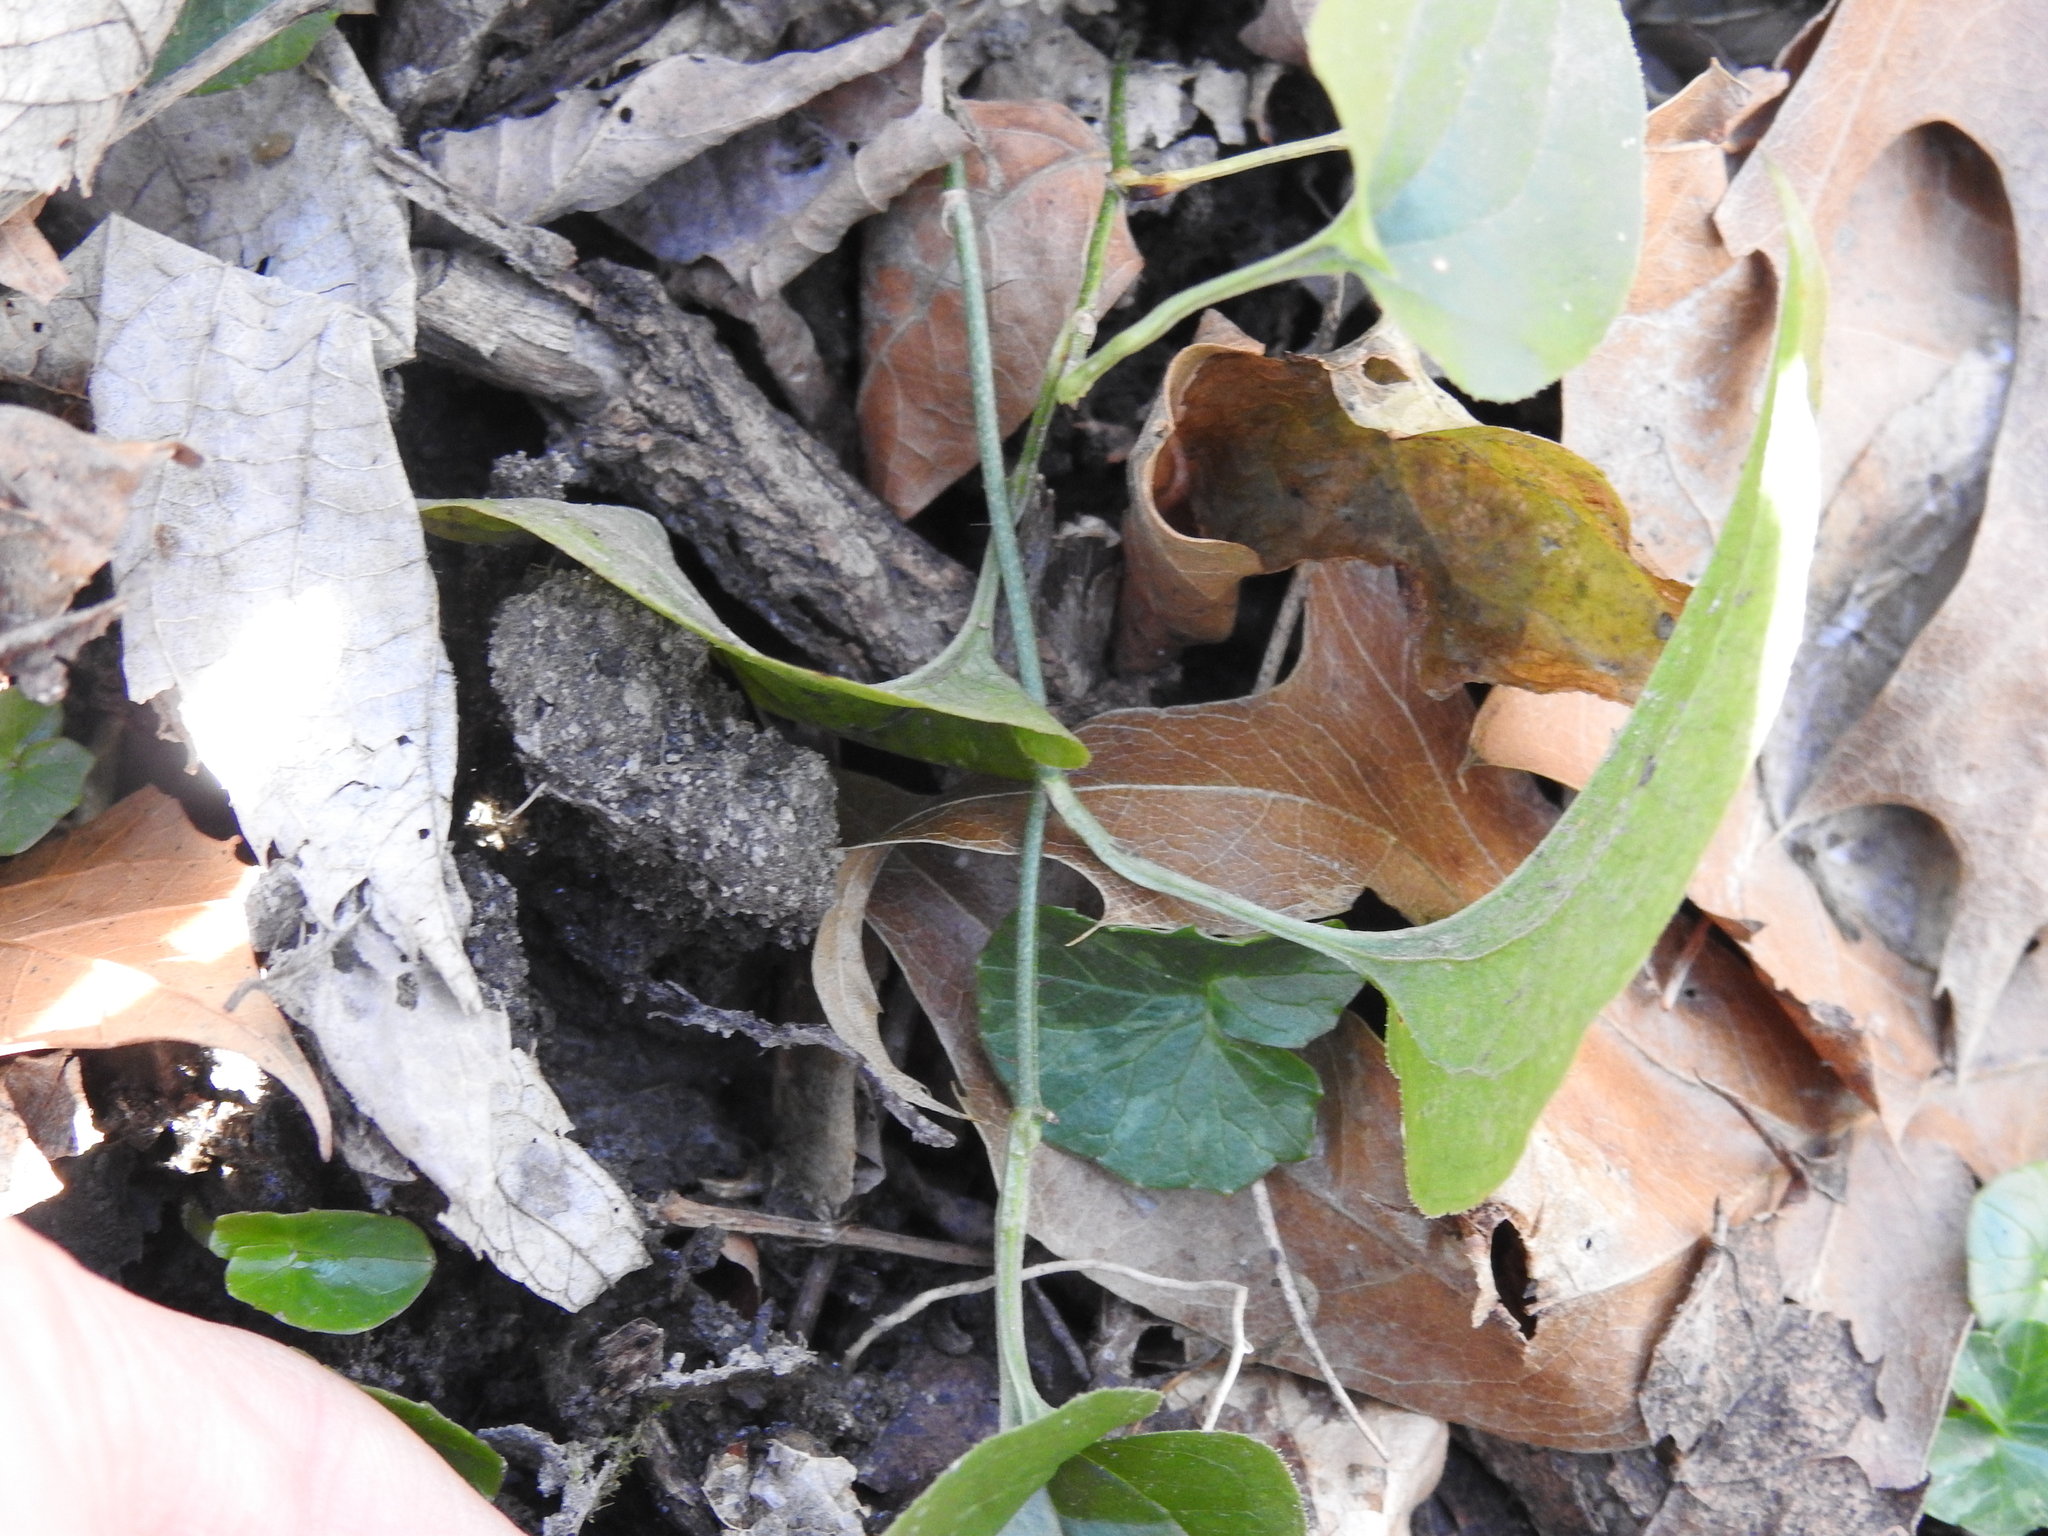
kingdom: Plantae
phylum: Tracheophyta
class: Liliopsida
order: Liliales
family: Smilacaceae
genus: Smilax
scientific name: Smilax tamnoides
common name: Hellfetter
